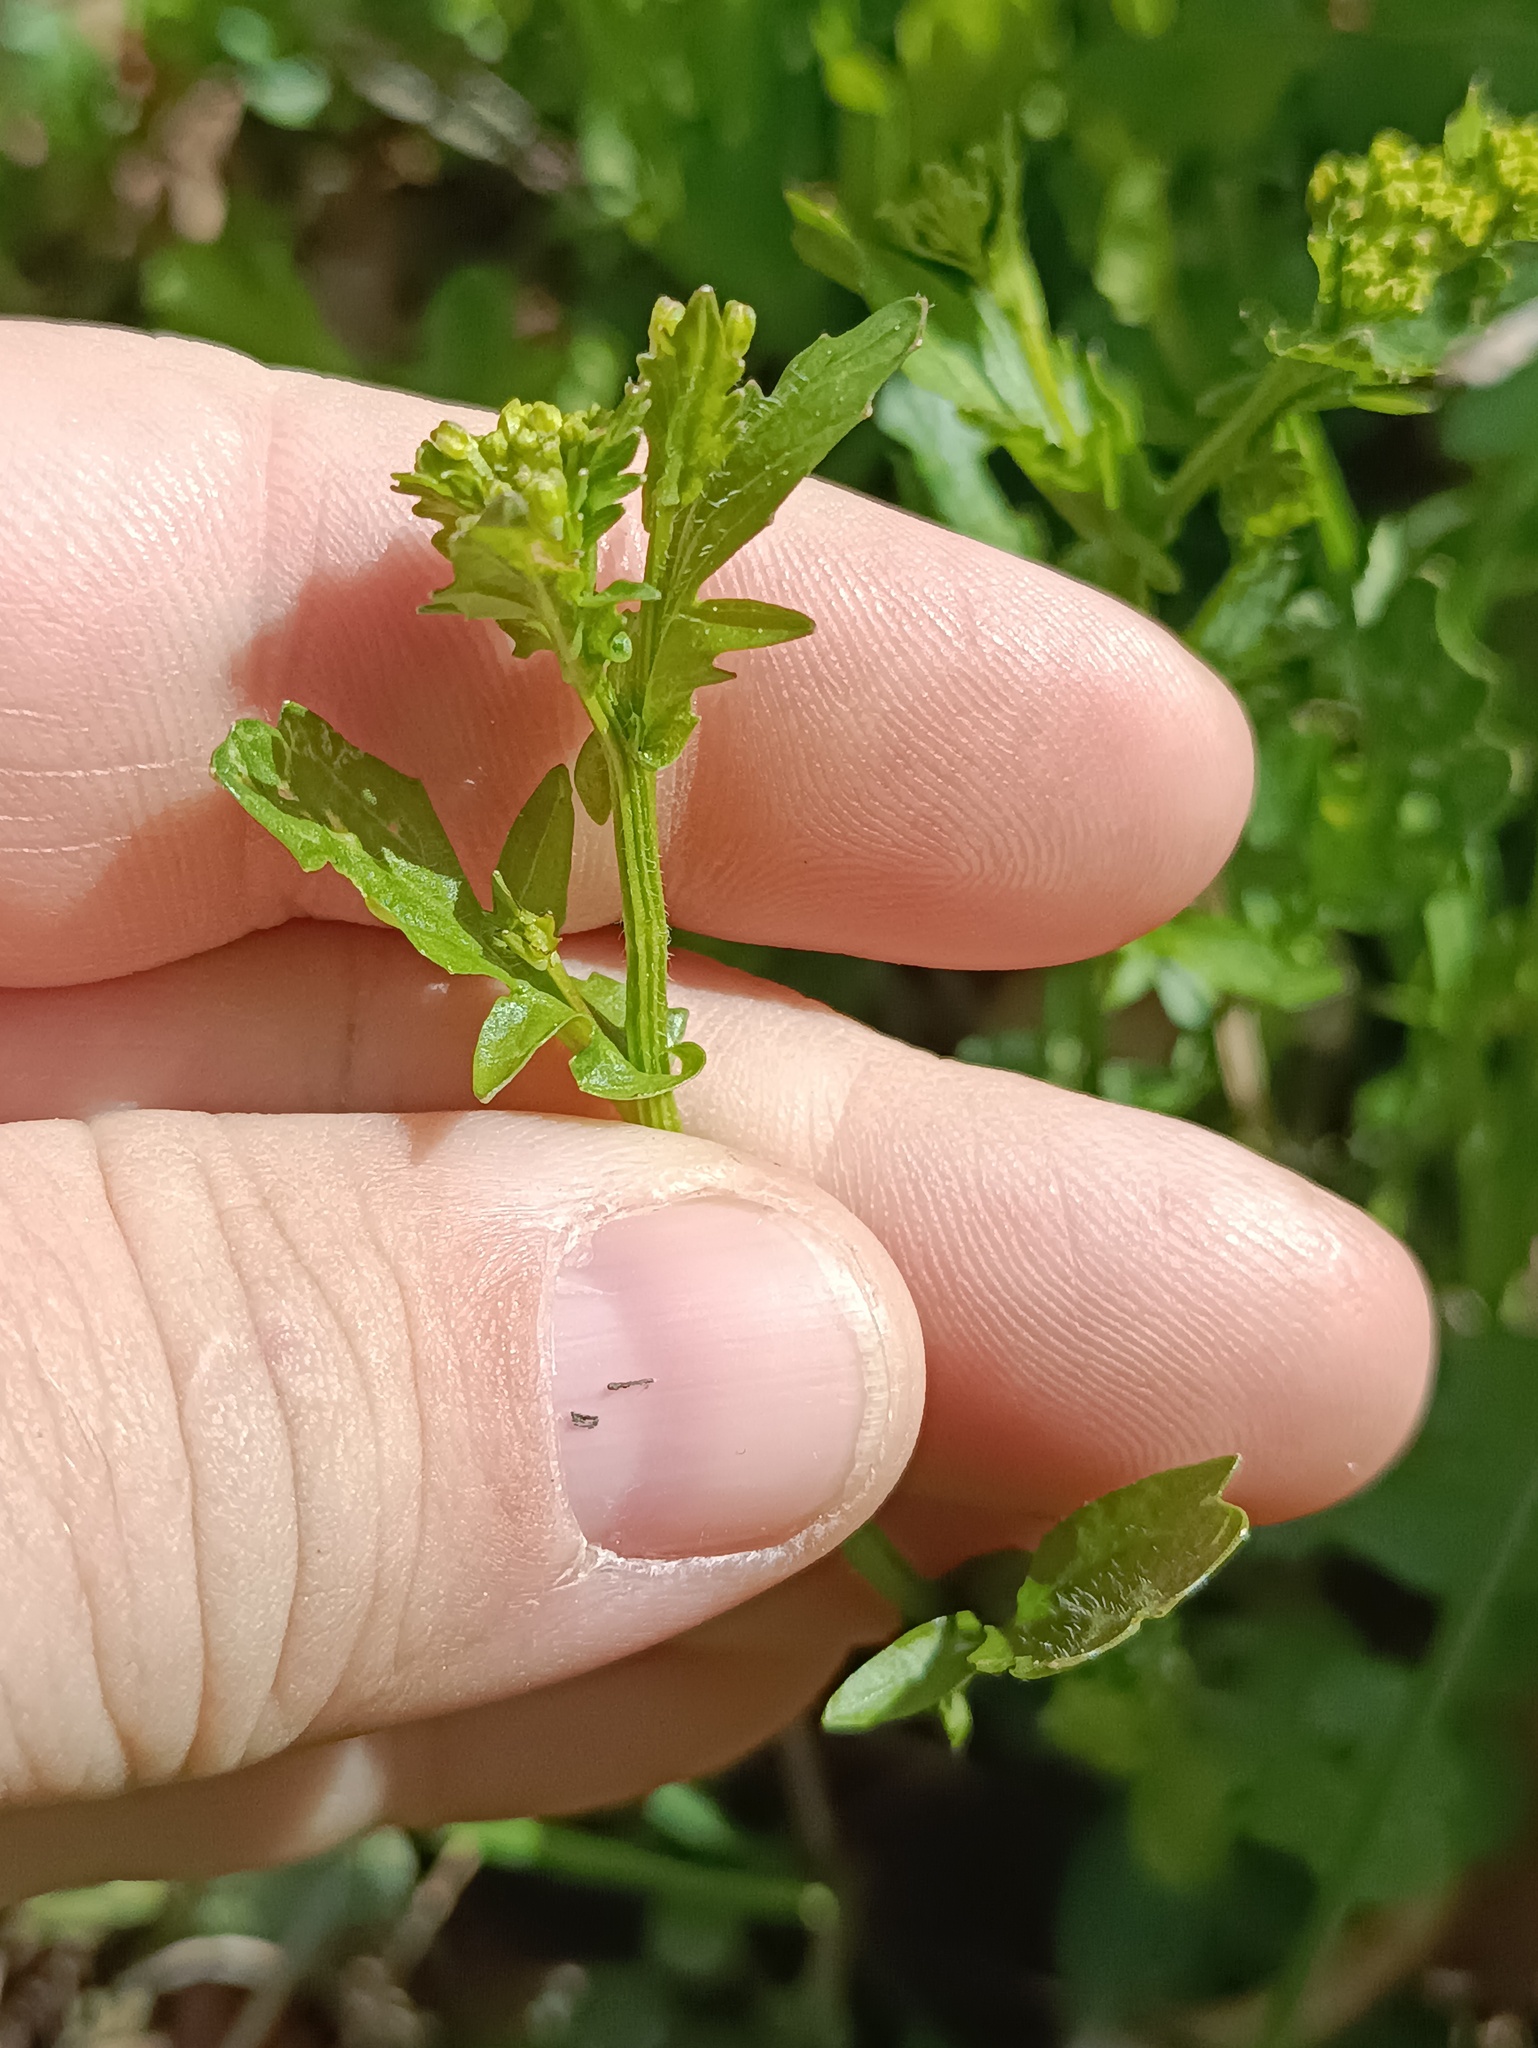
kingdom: Plantae
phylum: Tracheophyta
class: Magnoliopsida
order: Brassicales
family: Brassicaceae
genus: Barbarea
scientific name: Barbarea vulgaris
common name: Cressy-greens
